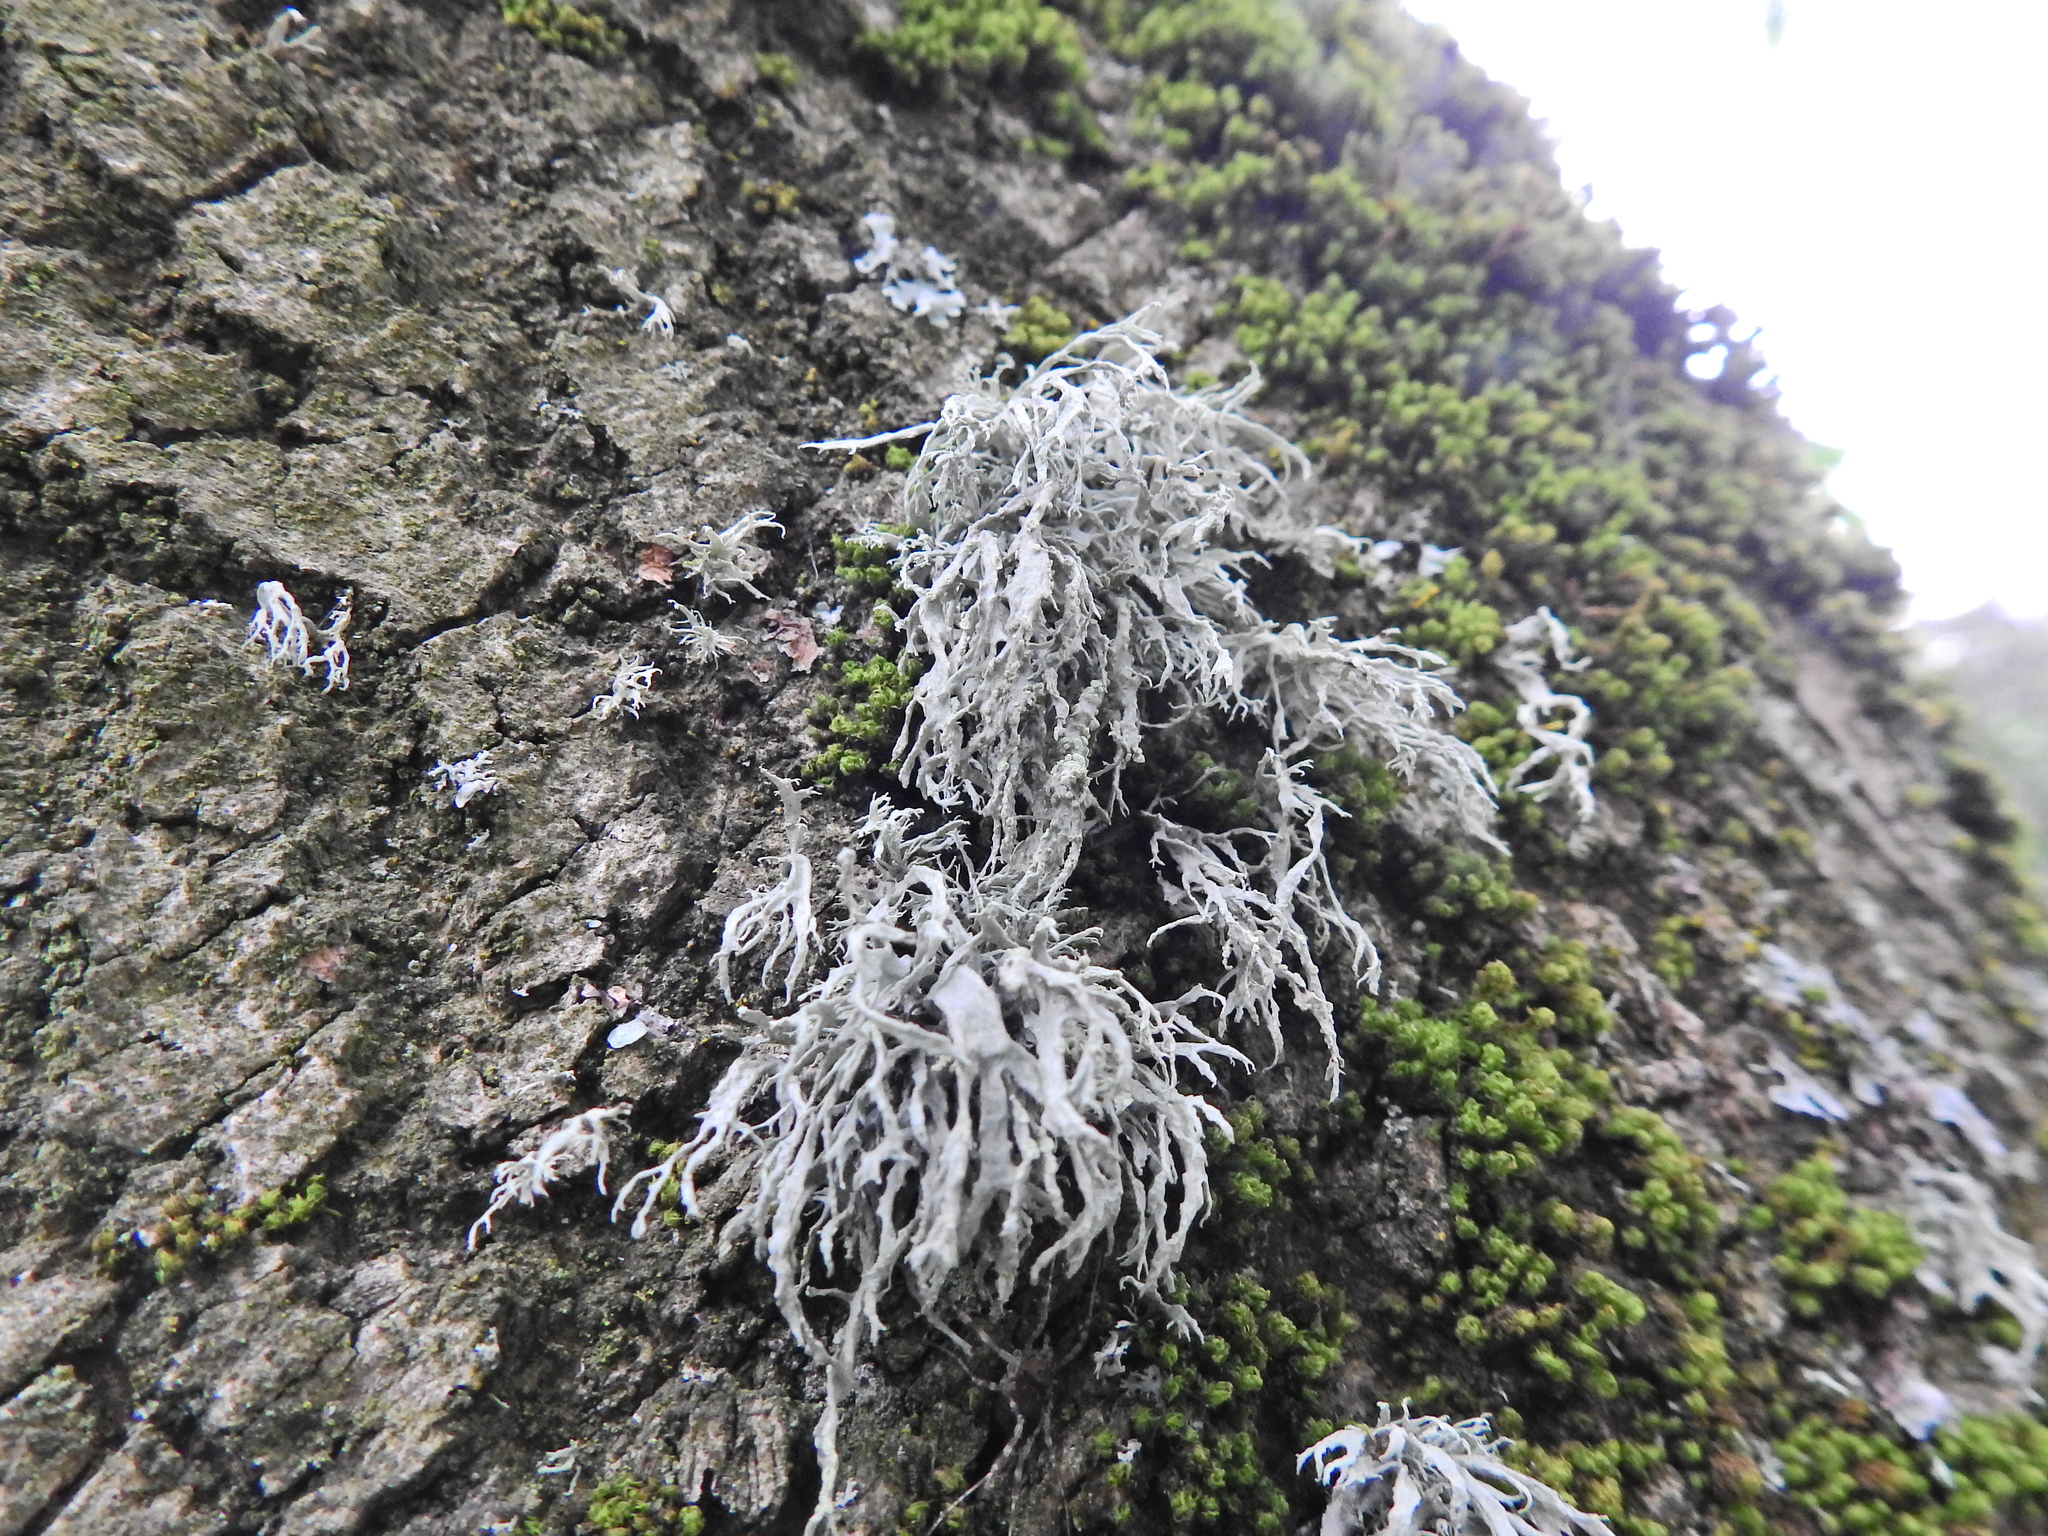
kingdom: Fungi
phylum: Ascomycota
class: Lecanoromycetes
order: Lecanorales
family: Ramalinaceae
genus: Ramalina
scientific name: Ramalina farinacea
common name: Farinose cartilage lichen
